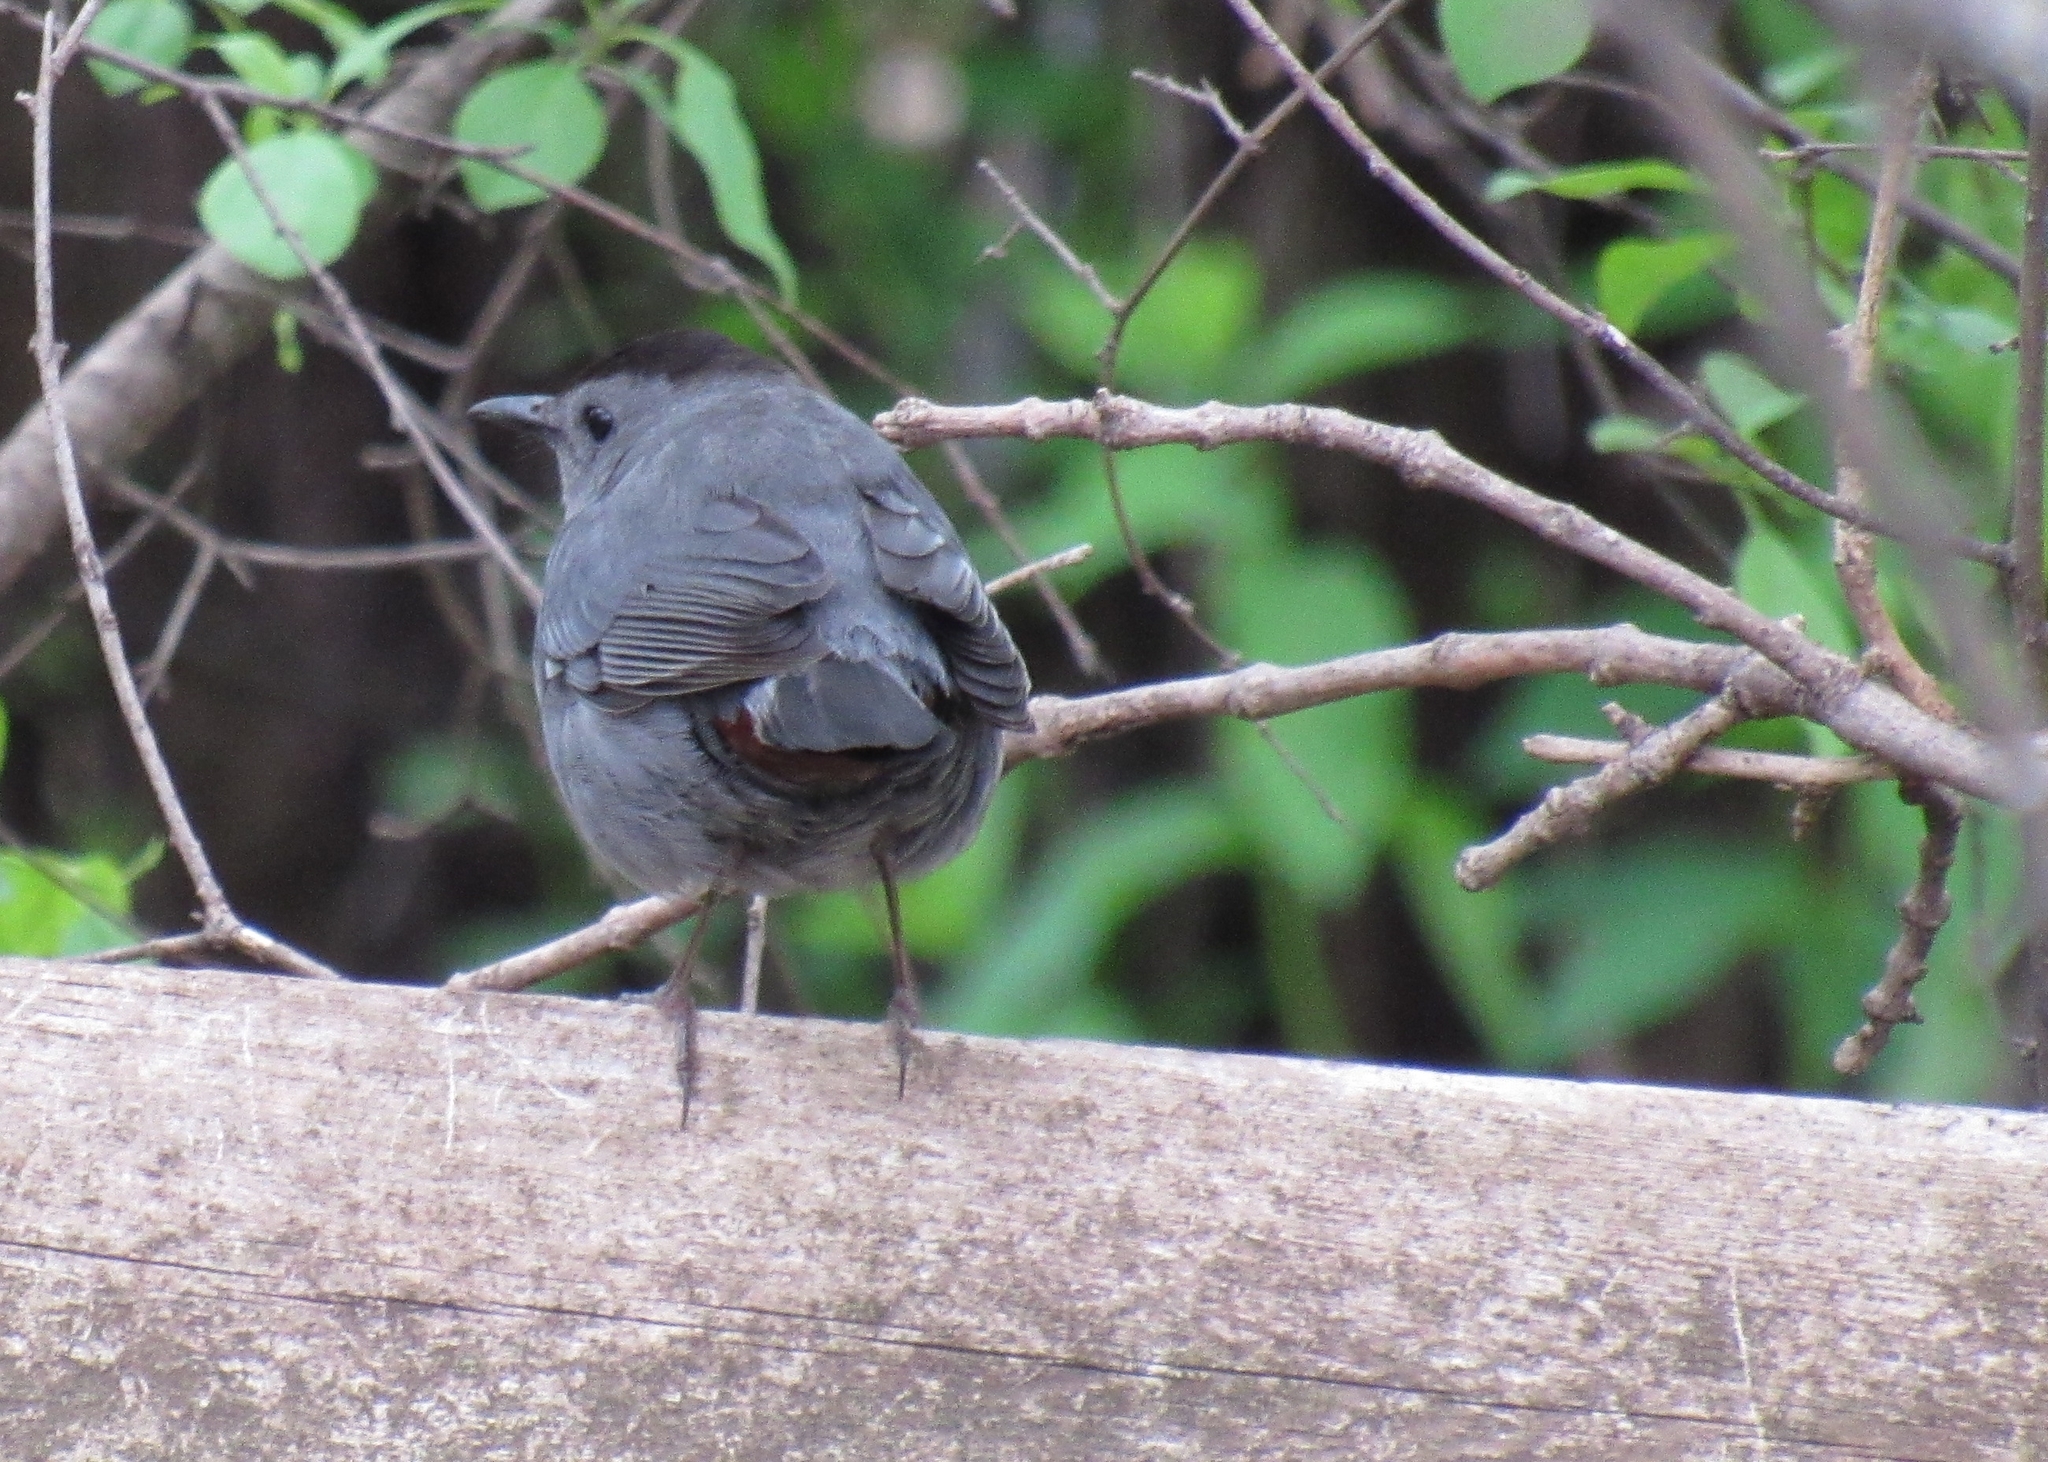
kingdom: Animalia
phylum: Chordata
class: Aves
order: Passeriformes
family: Mimidae
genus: Dumetella
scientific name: Dumetella carolinensis
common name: Gray catbird
